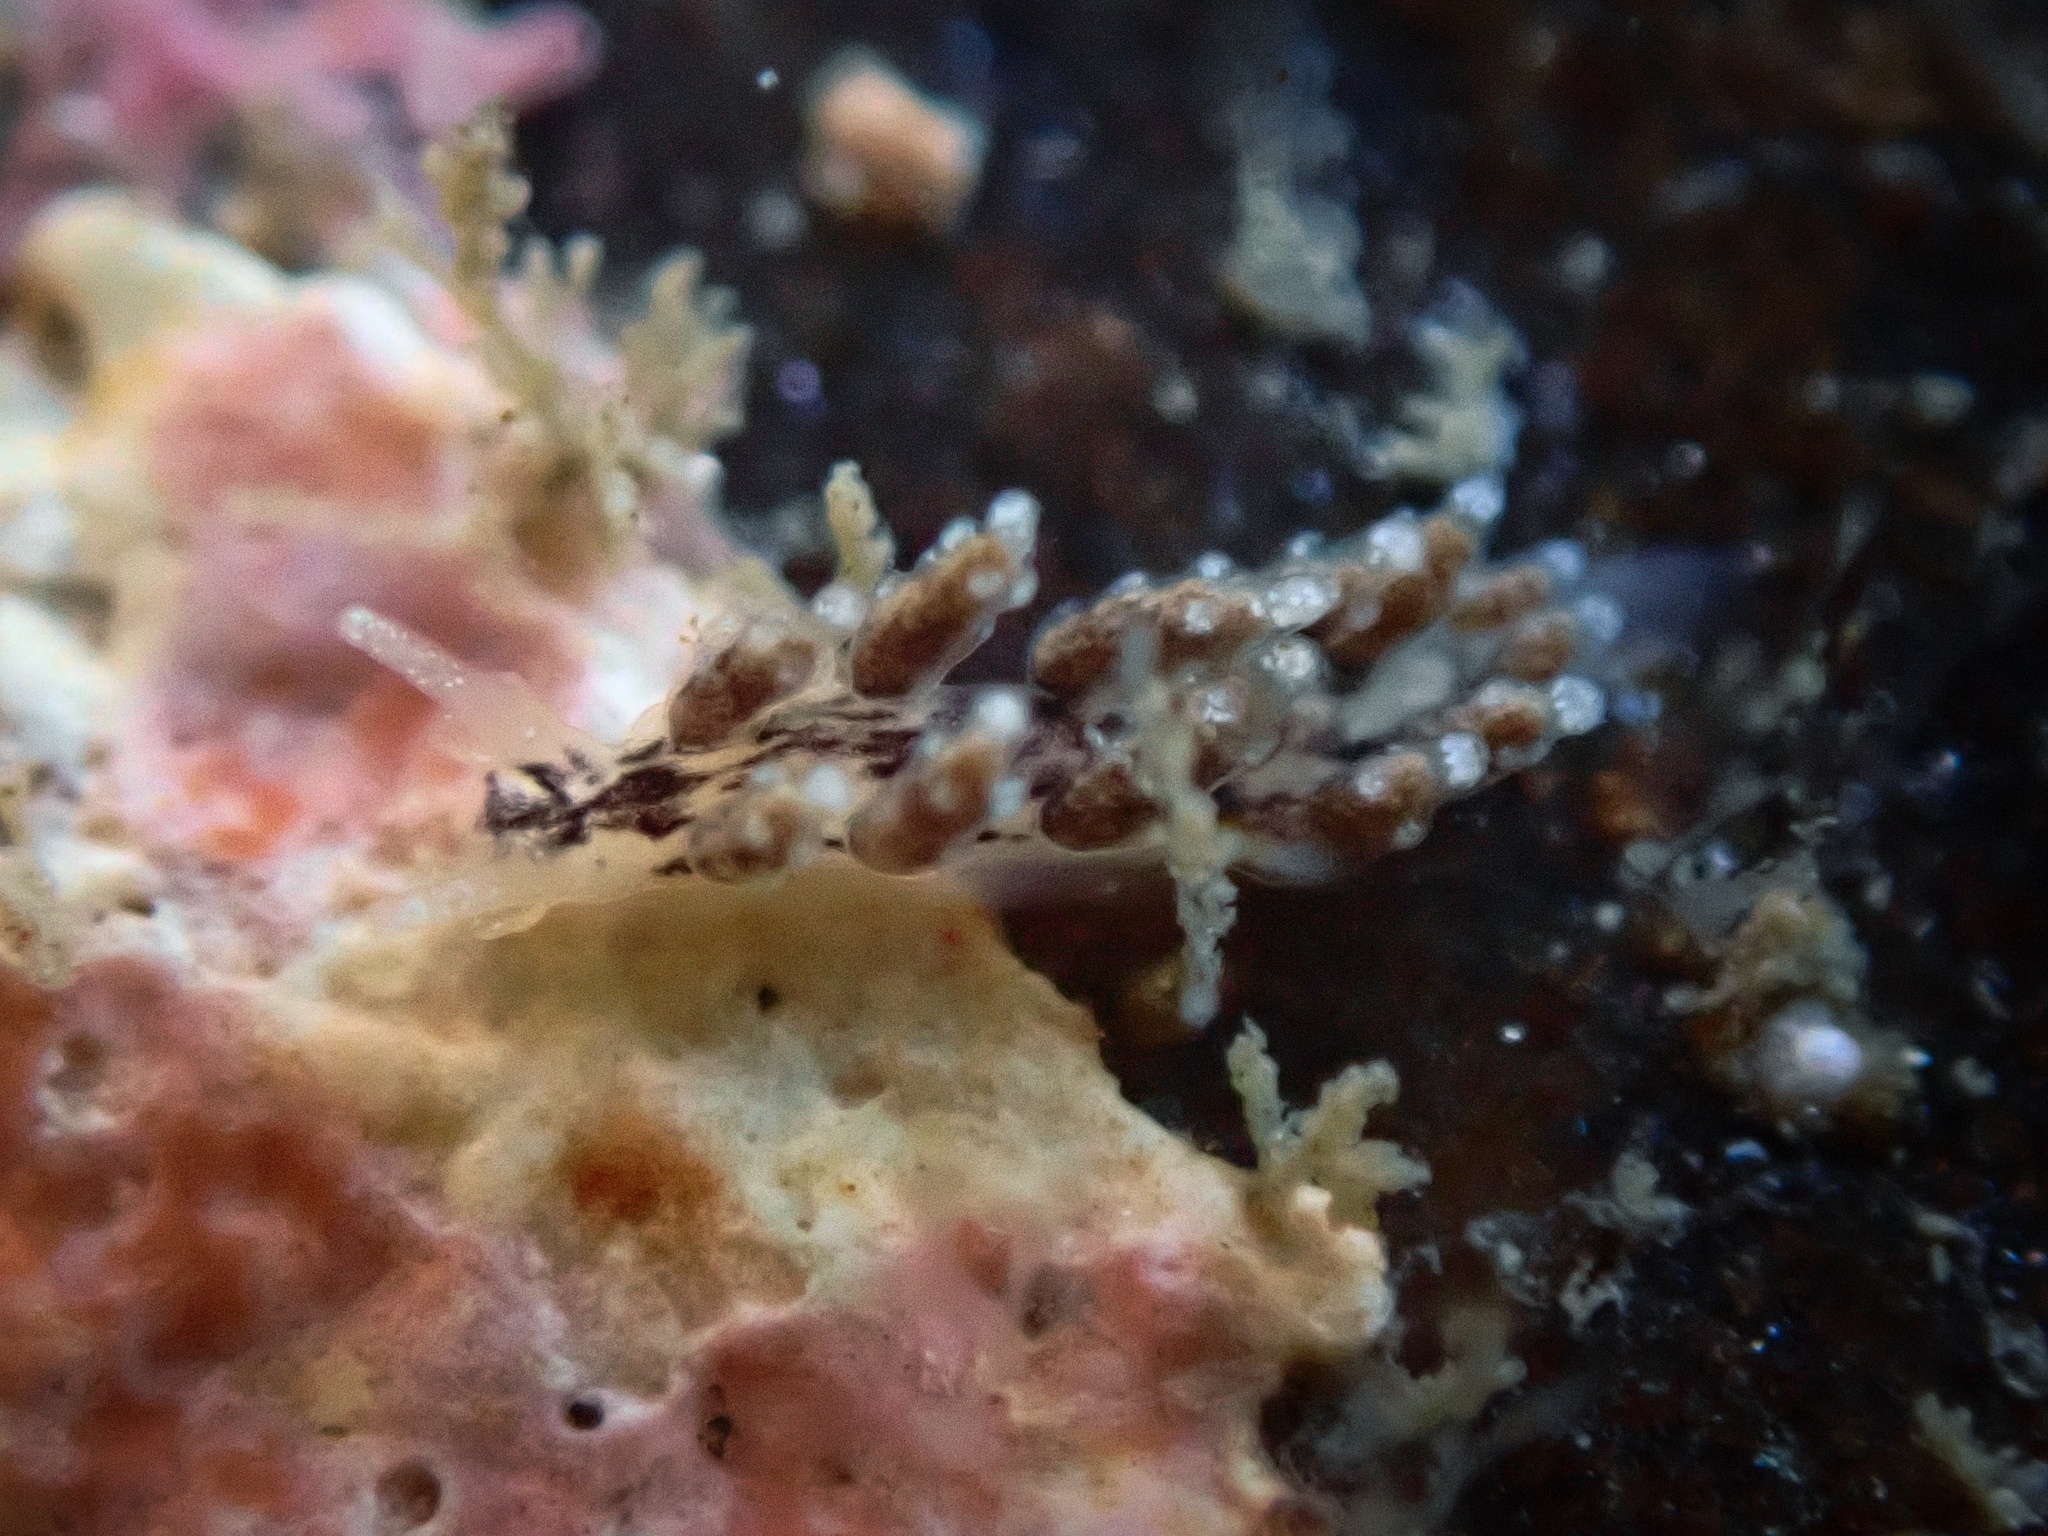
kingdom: Animalia
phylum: Mollusca
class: Gastropoda
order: Nudibranchia
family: Dotidae
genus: Doto
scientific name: Doto kya
